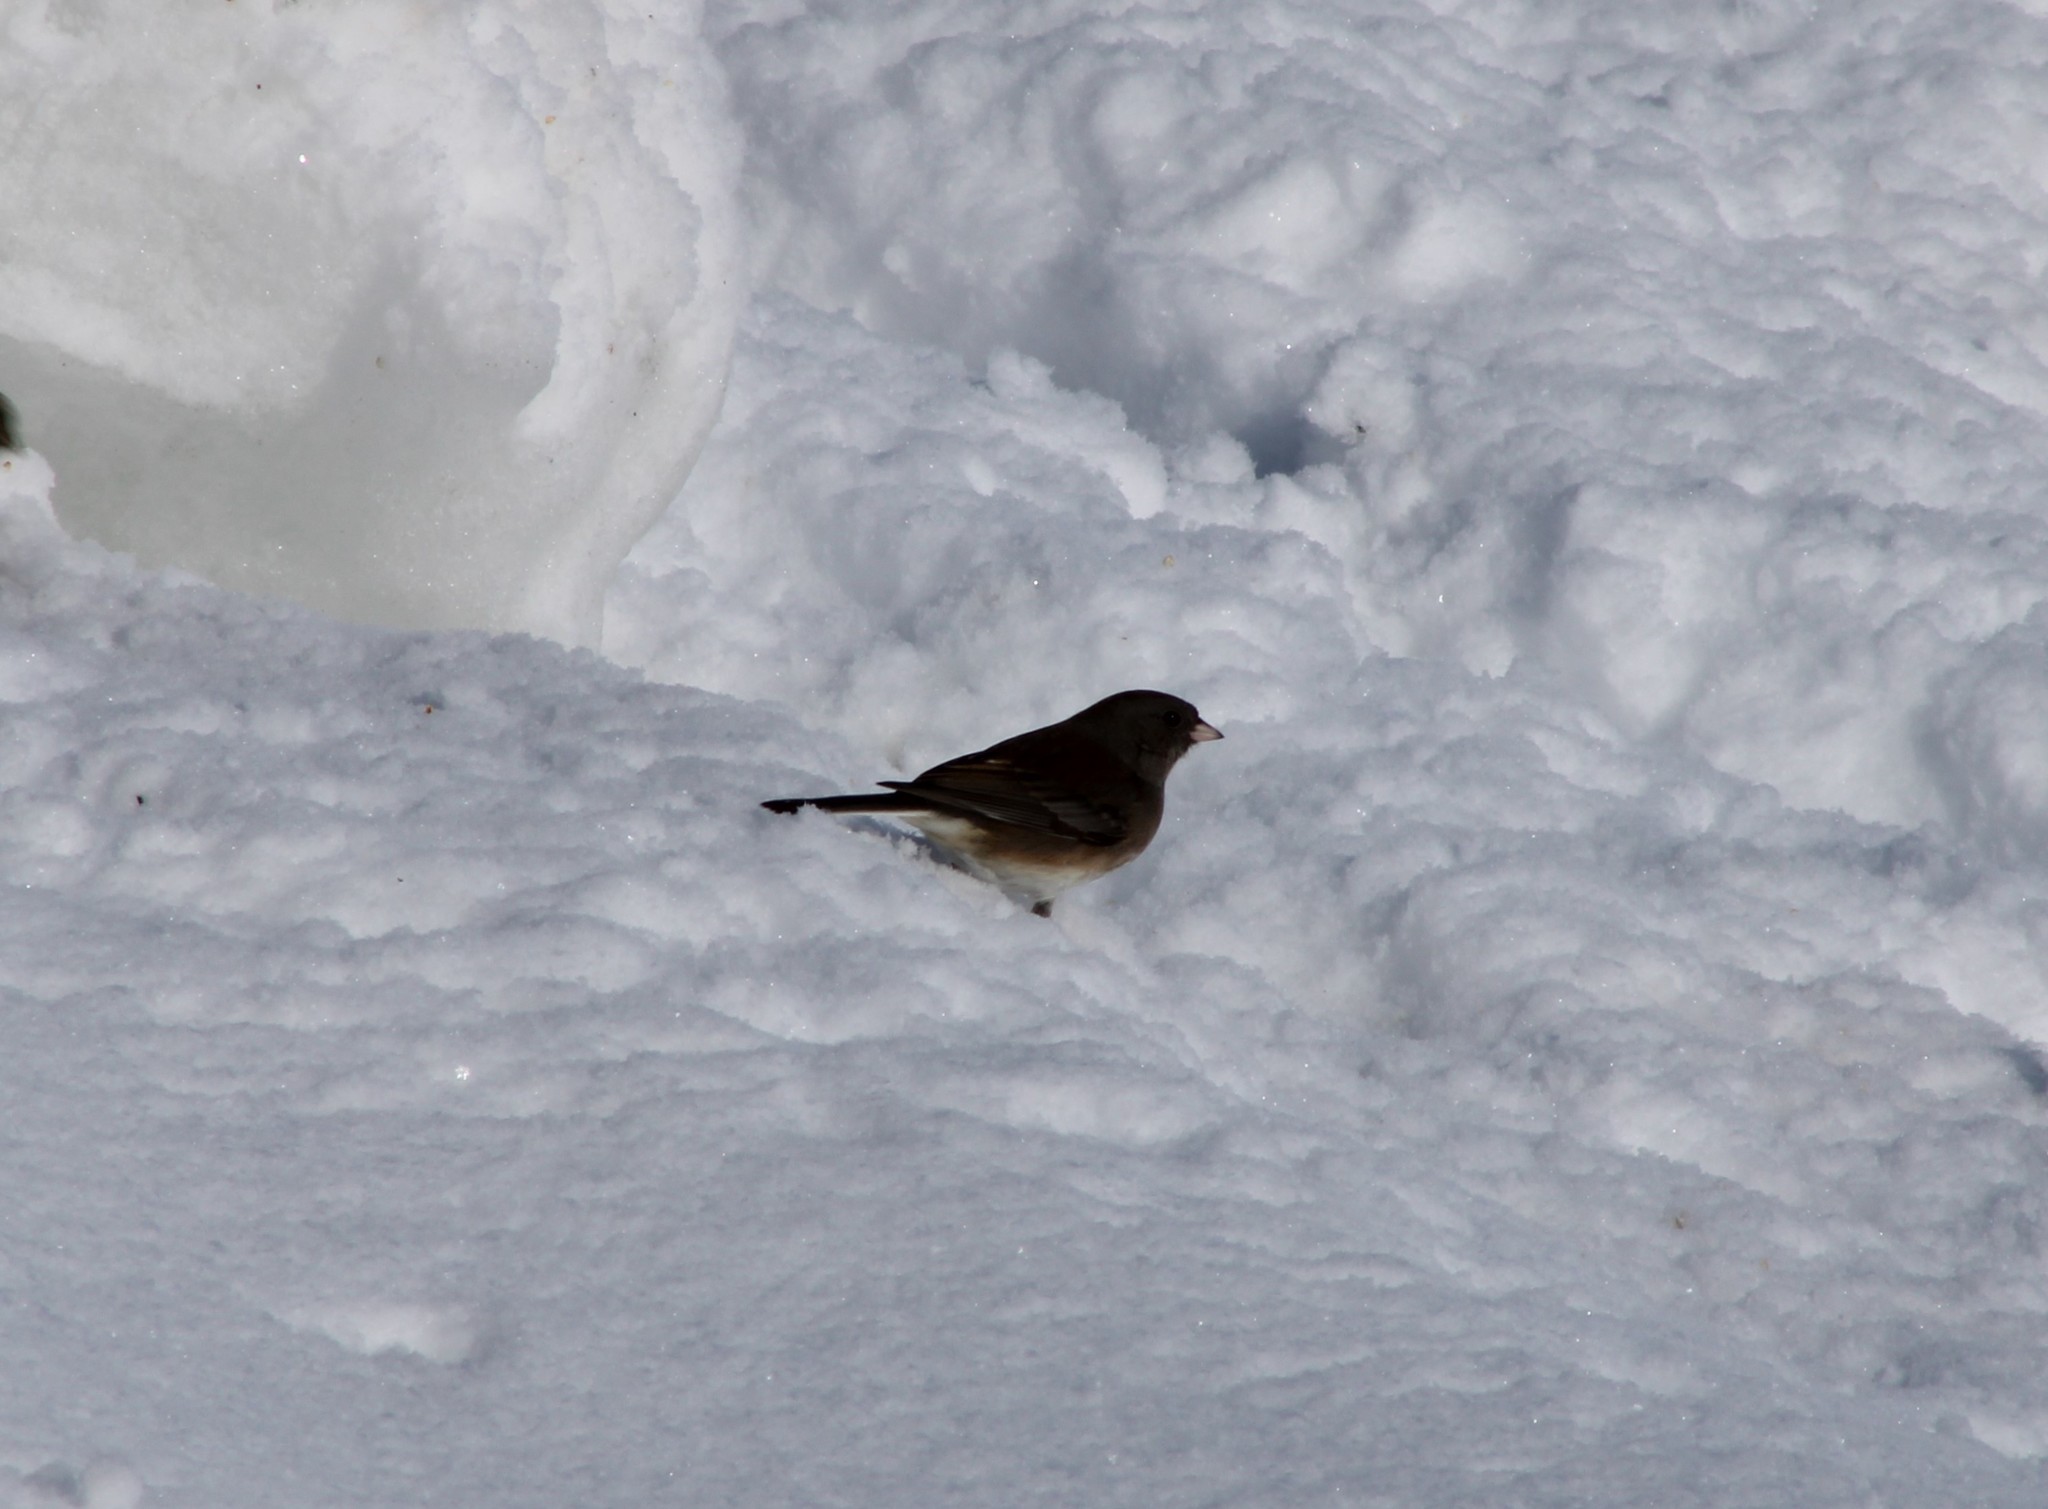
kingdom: Animalia
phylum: Chordata
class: Aves
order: Passeriformes
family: Passerellidae
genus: Junco
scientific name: Junco hyemalis
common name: Dark-eyed junco
